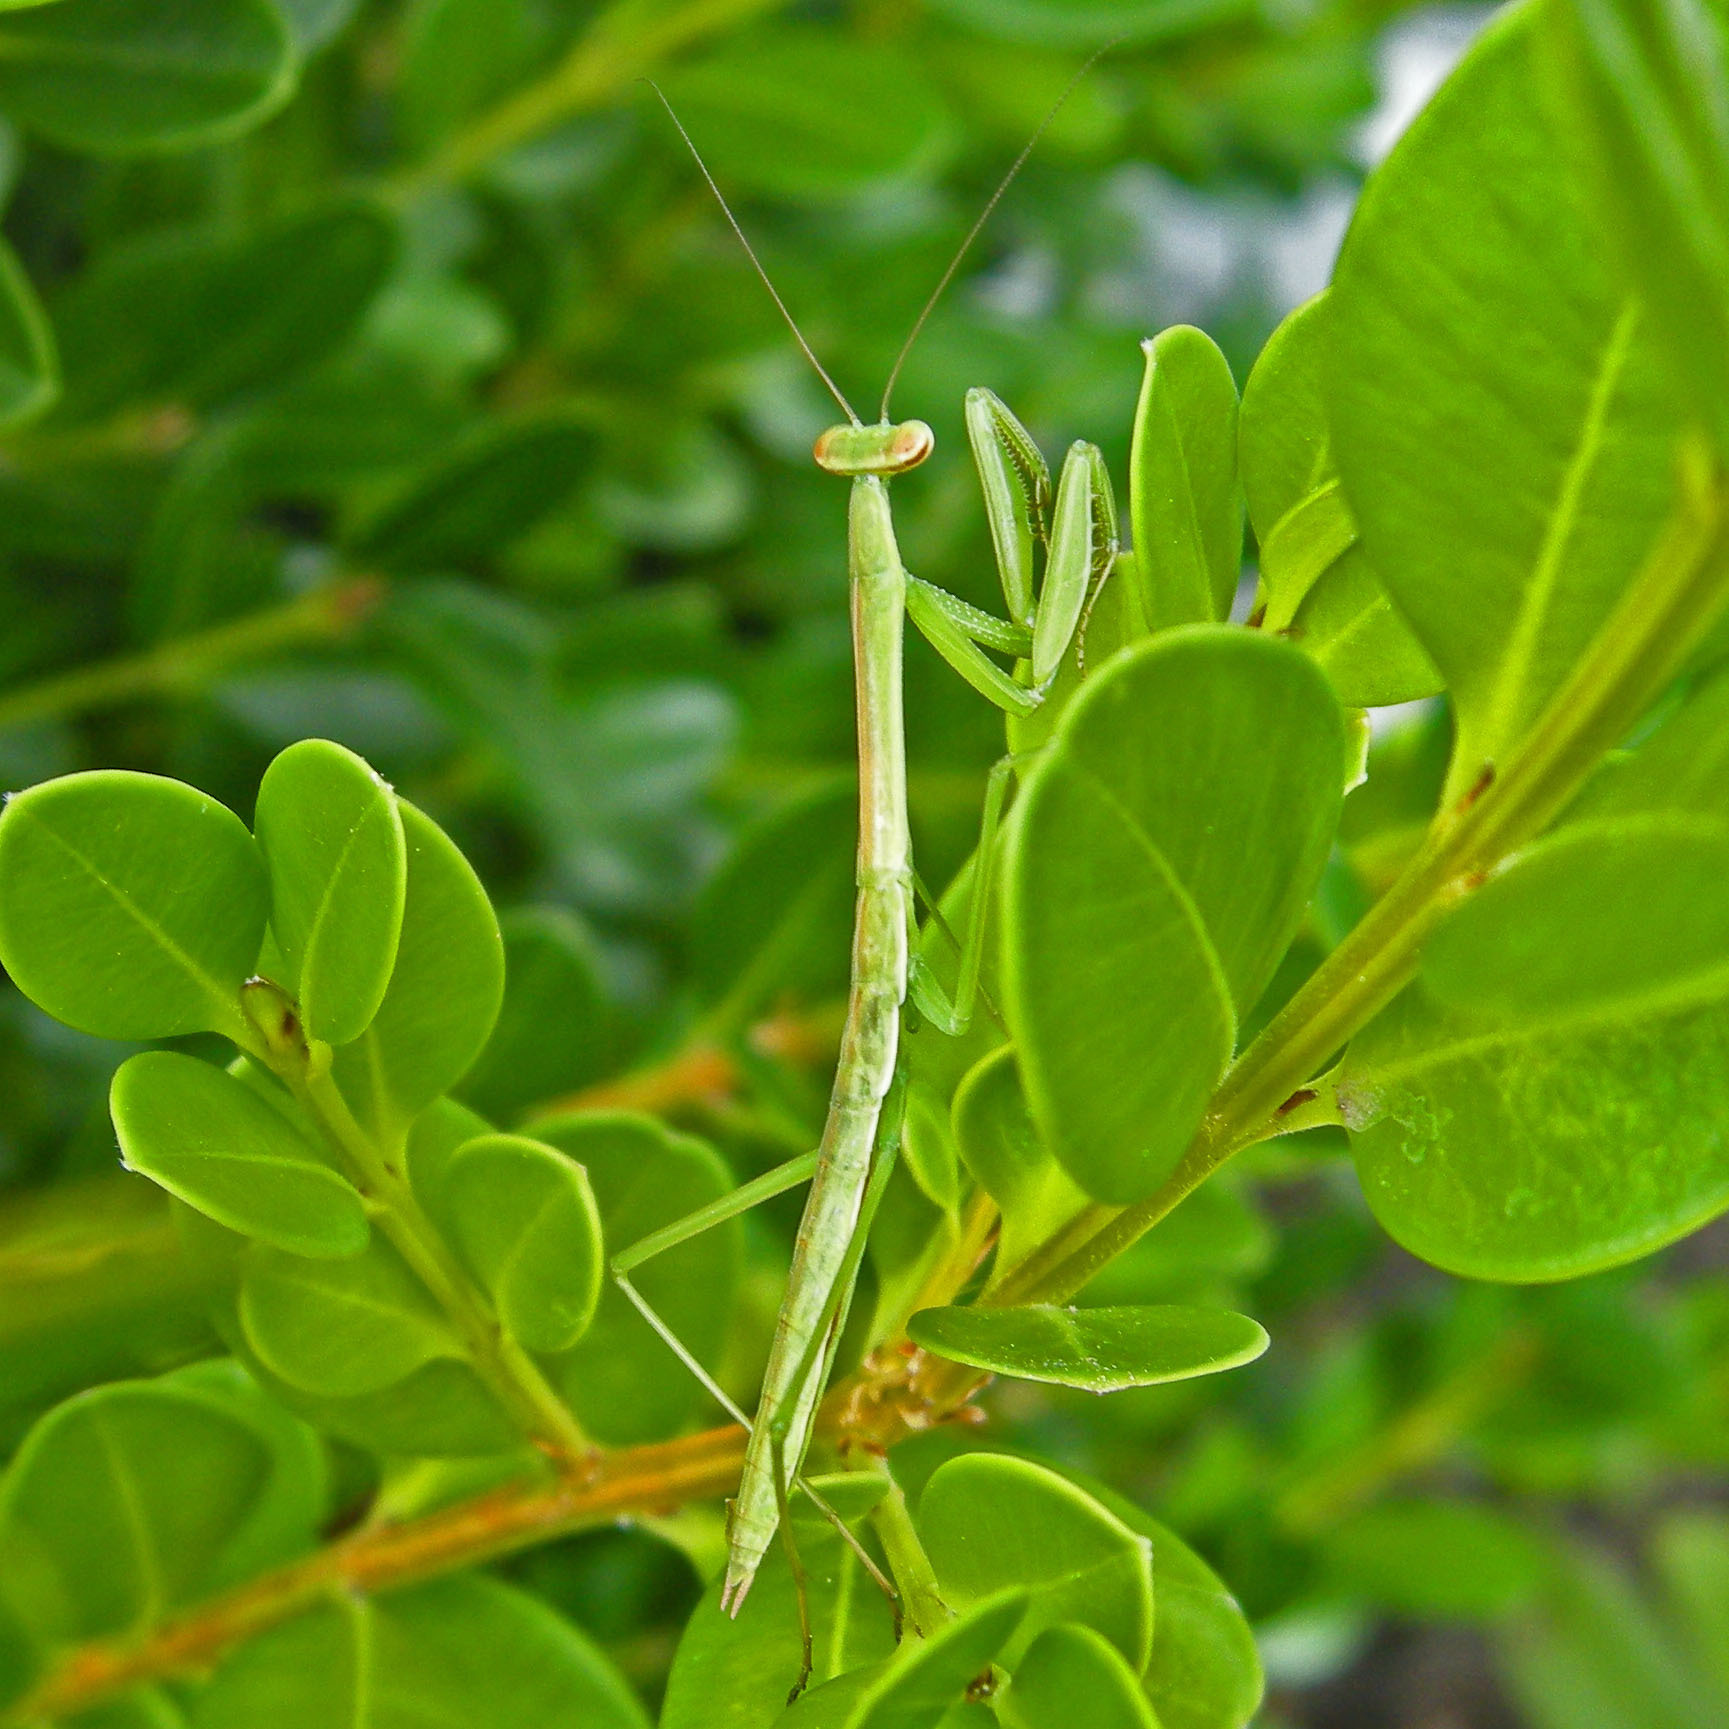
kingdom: Animalia
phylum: Arthropoda
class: Insecta
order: Mantodea
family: Mantidae
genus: Tenodera
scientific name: Tenodera angustipennis
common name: Asian mantis
